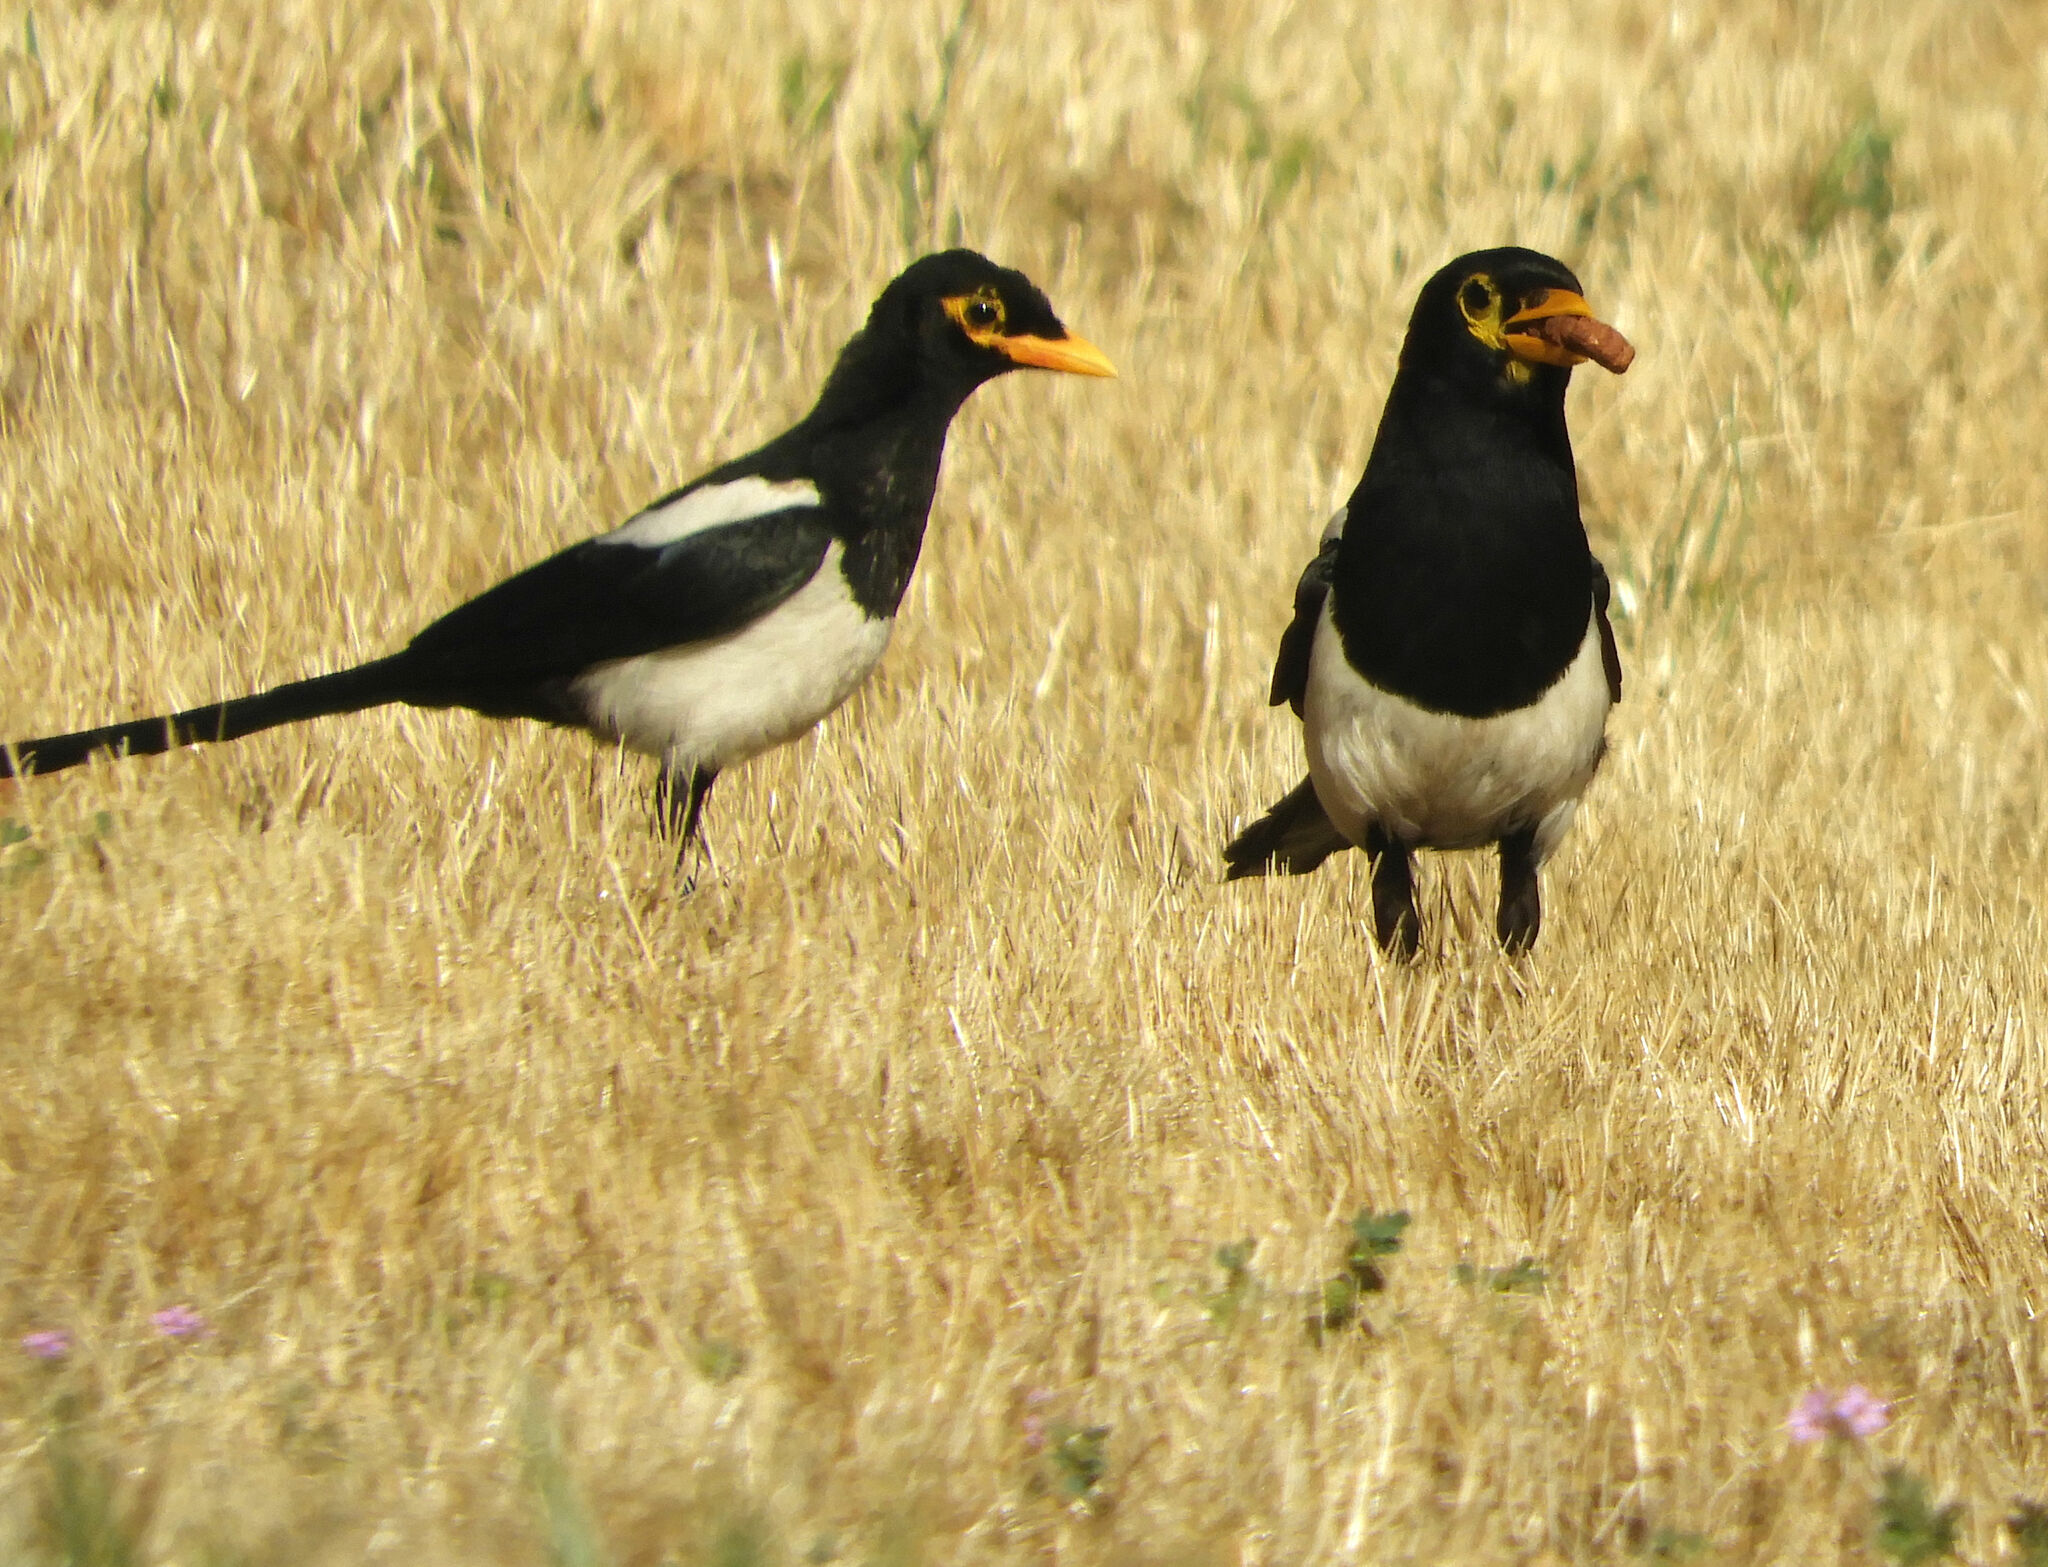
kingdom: Animalia
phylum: Chordata
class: Aves
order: Passeriformes
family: Corvidae
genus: Pica
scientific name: Pica nuttalli
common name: Yellow-billed magpie
